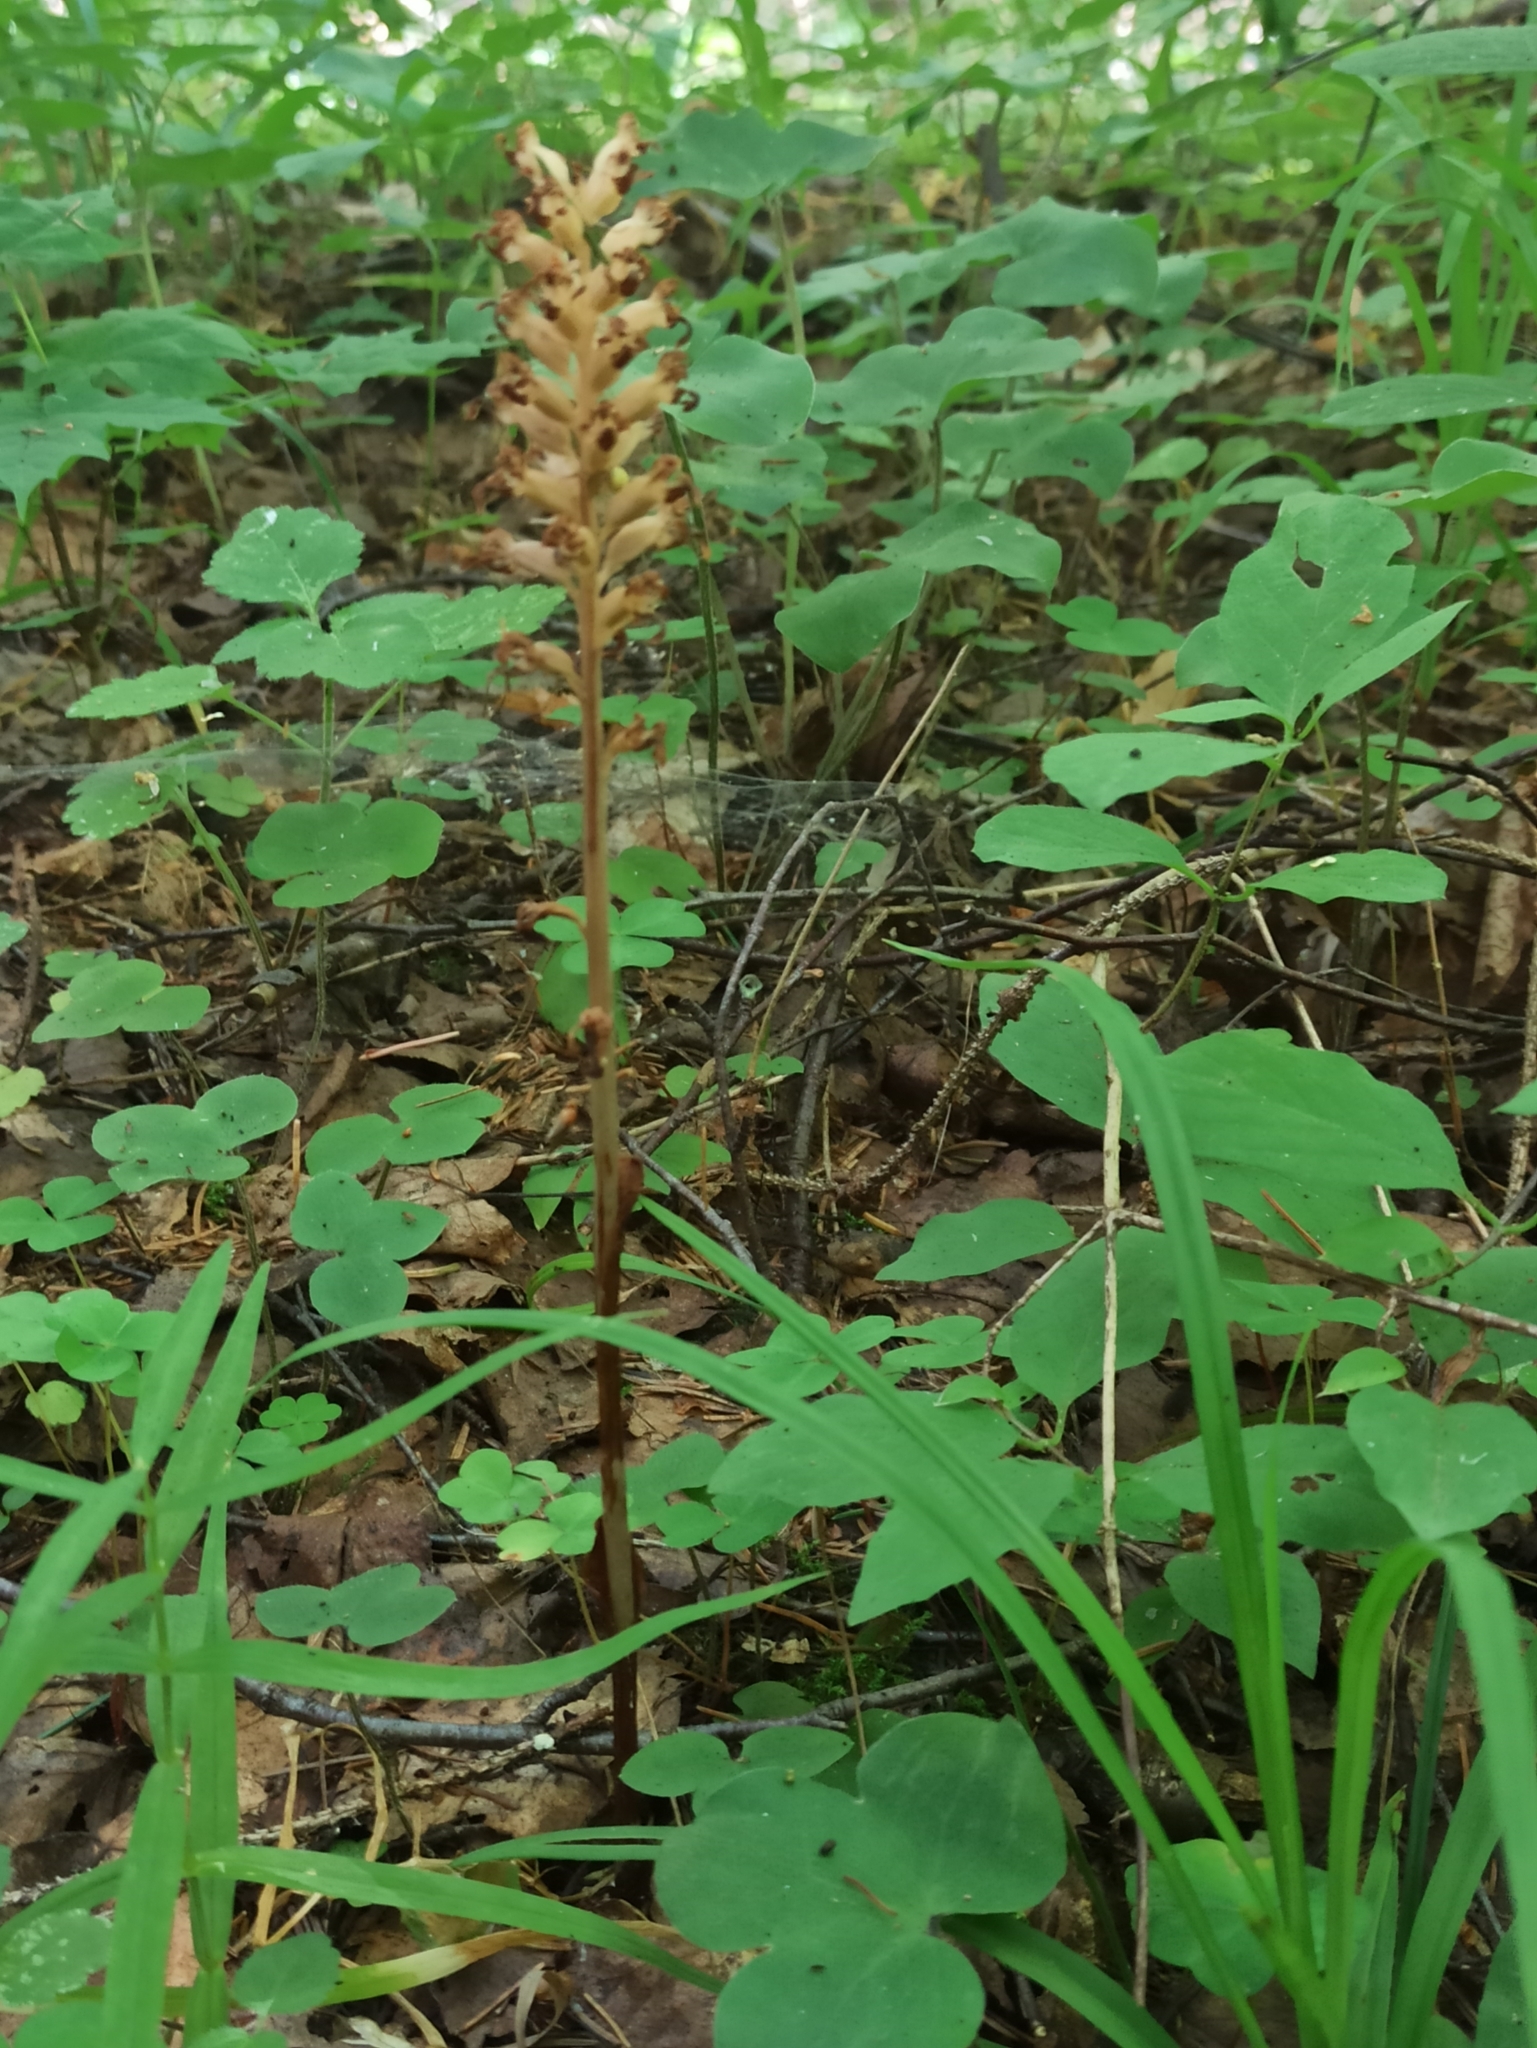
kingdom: Plantae
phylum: Tracheophyta
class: Liliopsida
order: Asparagales
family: Orchidaceae
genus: Neottia
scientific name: Neottia nidus-avis
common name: Bird's-nest orchid
